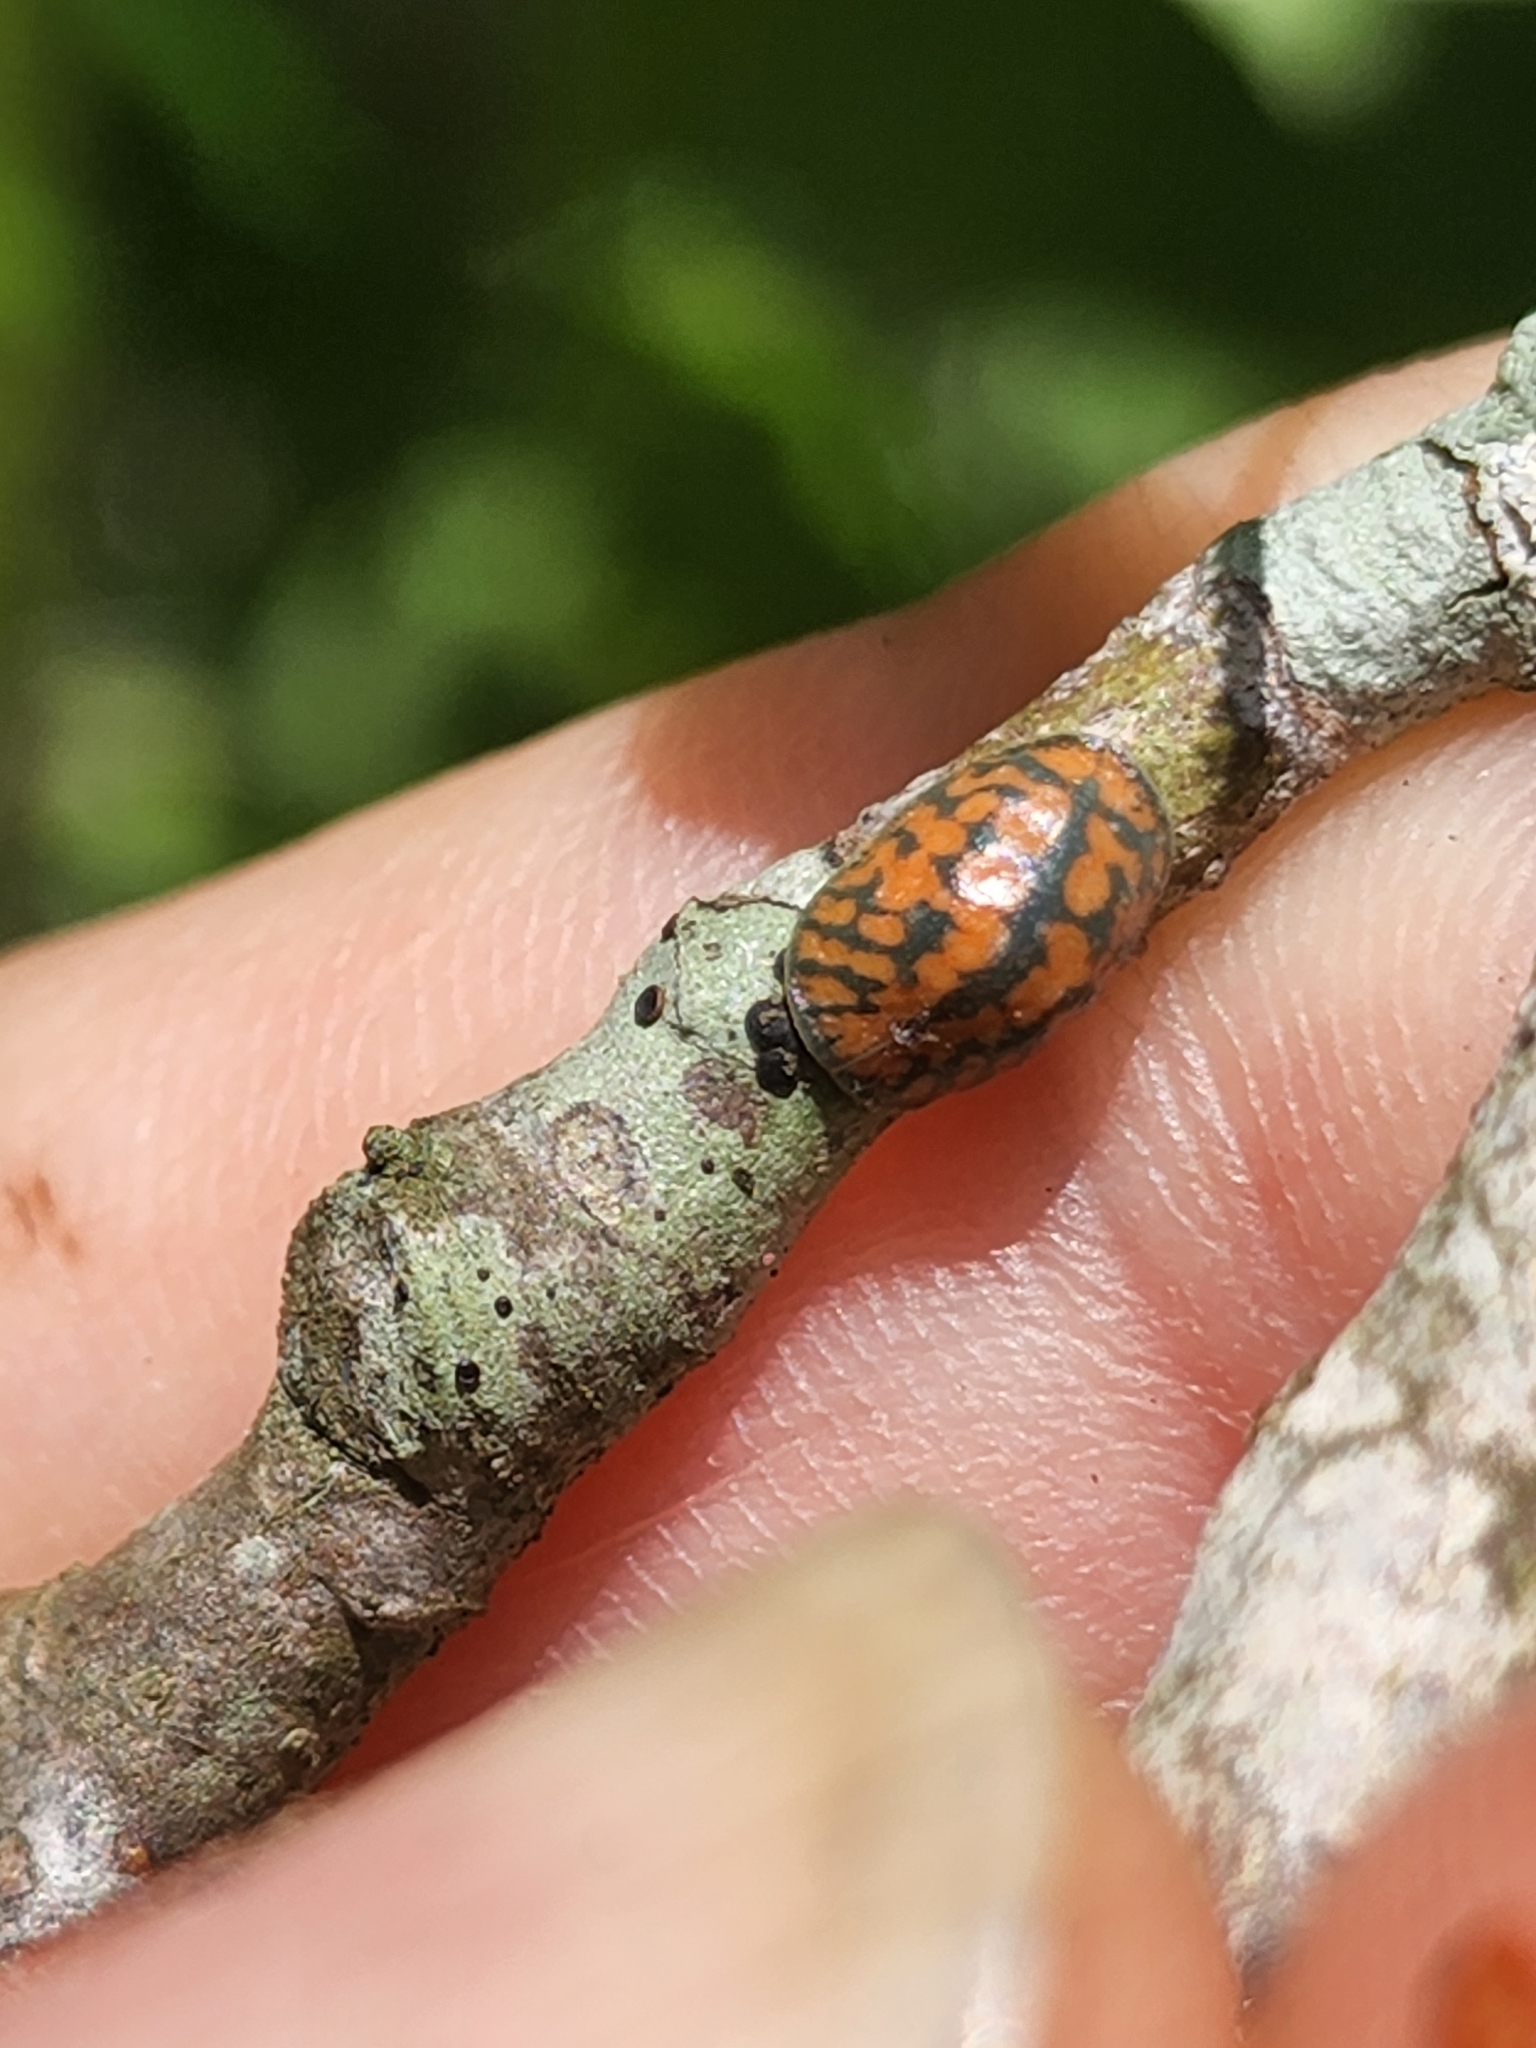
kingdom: Animalia
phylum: Arthropoda
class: Insecta
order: Hemiptera
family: Coccidae
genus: Toumeyella
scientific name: Toumeyella liriodendri
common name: Tuliptree scale
